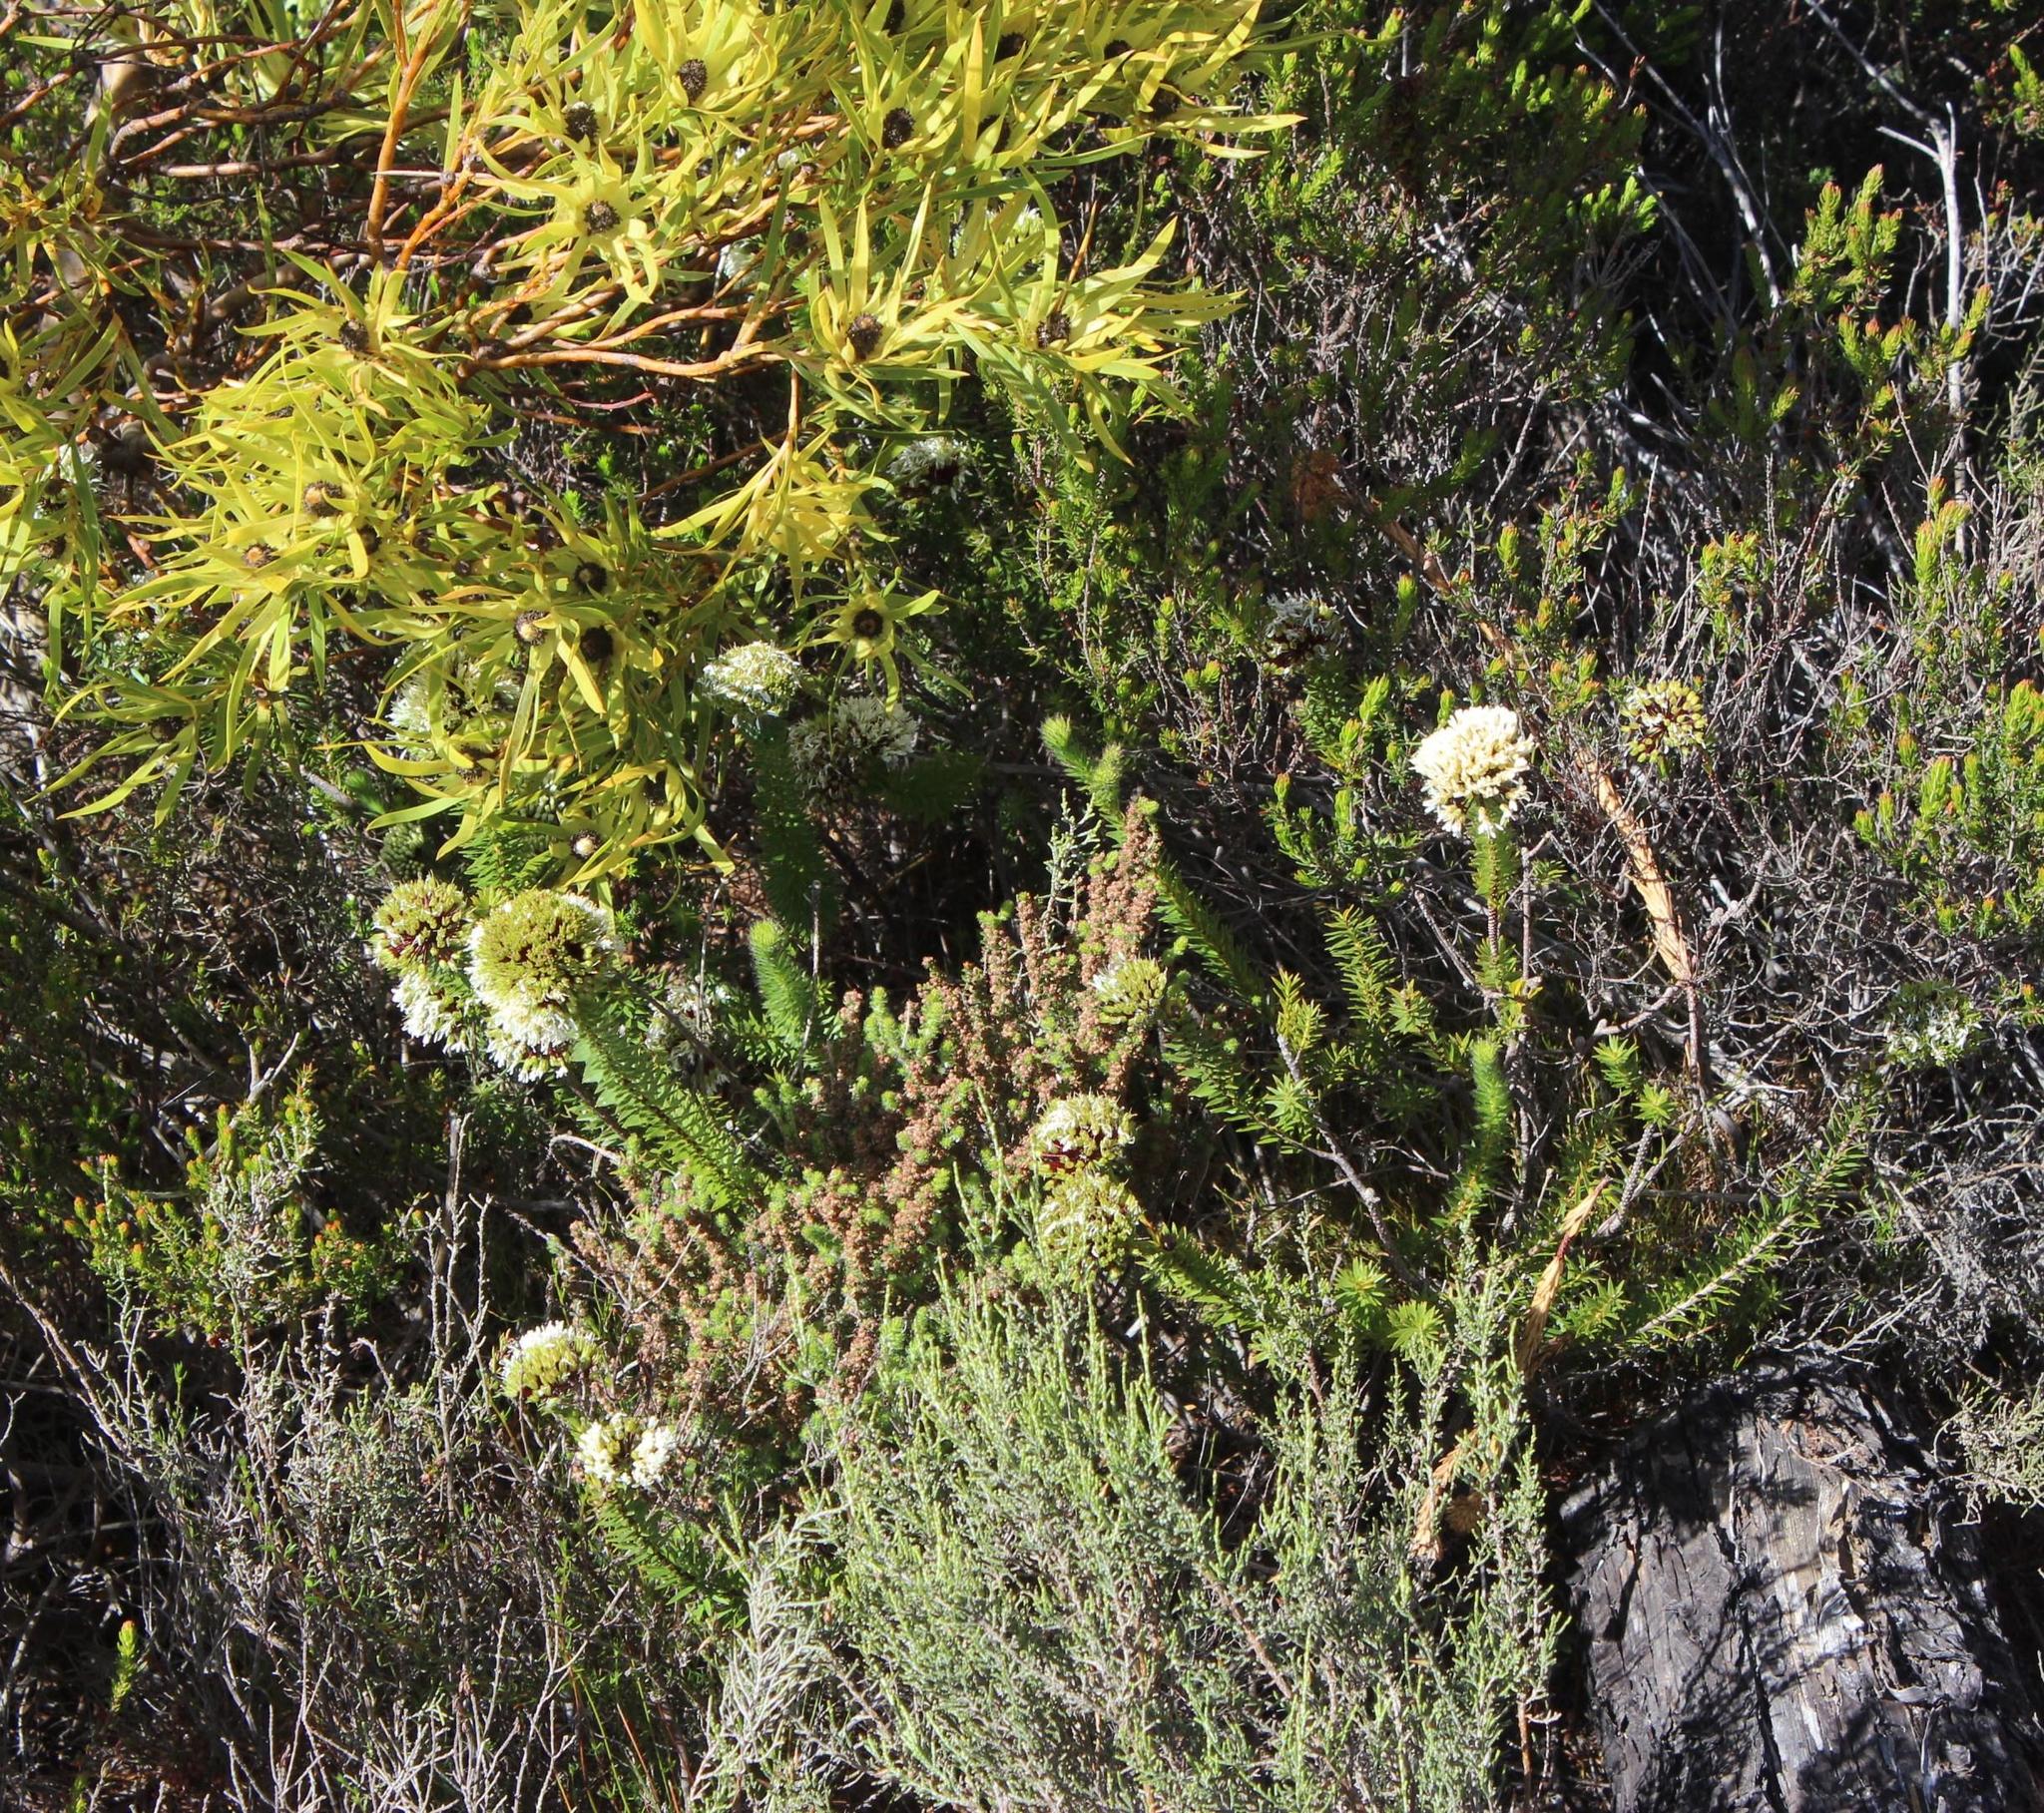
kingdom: Plantae
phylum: Tracheophyta
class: Magnoliopsida
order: Sapindales
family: Rutaceae
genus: Agathosma
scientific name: Agathosma bifida
